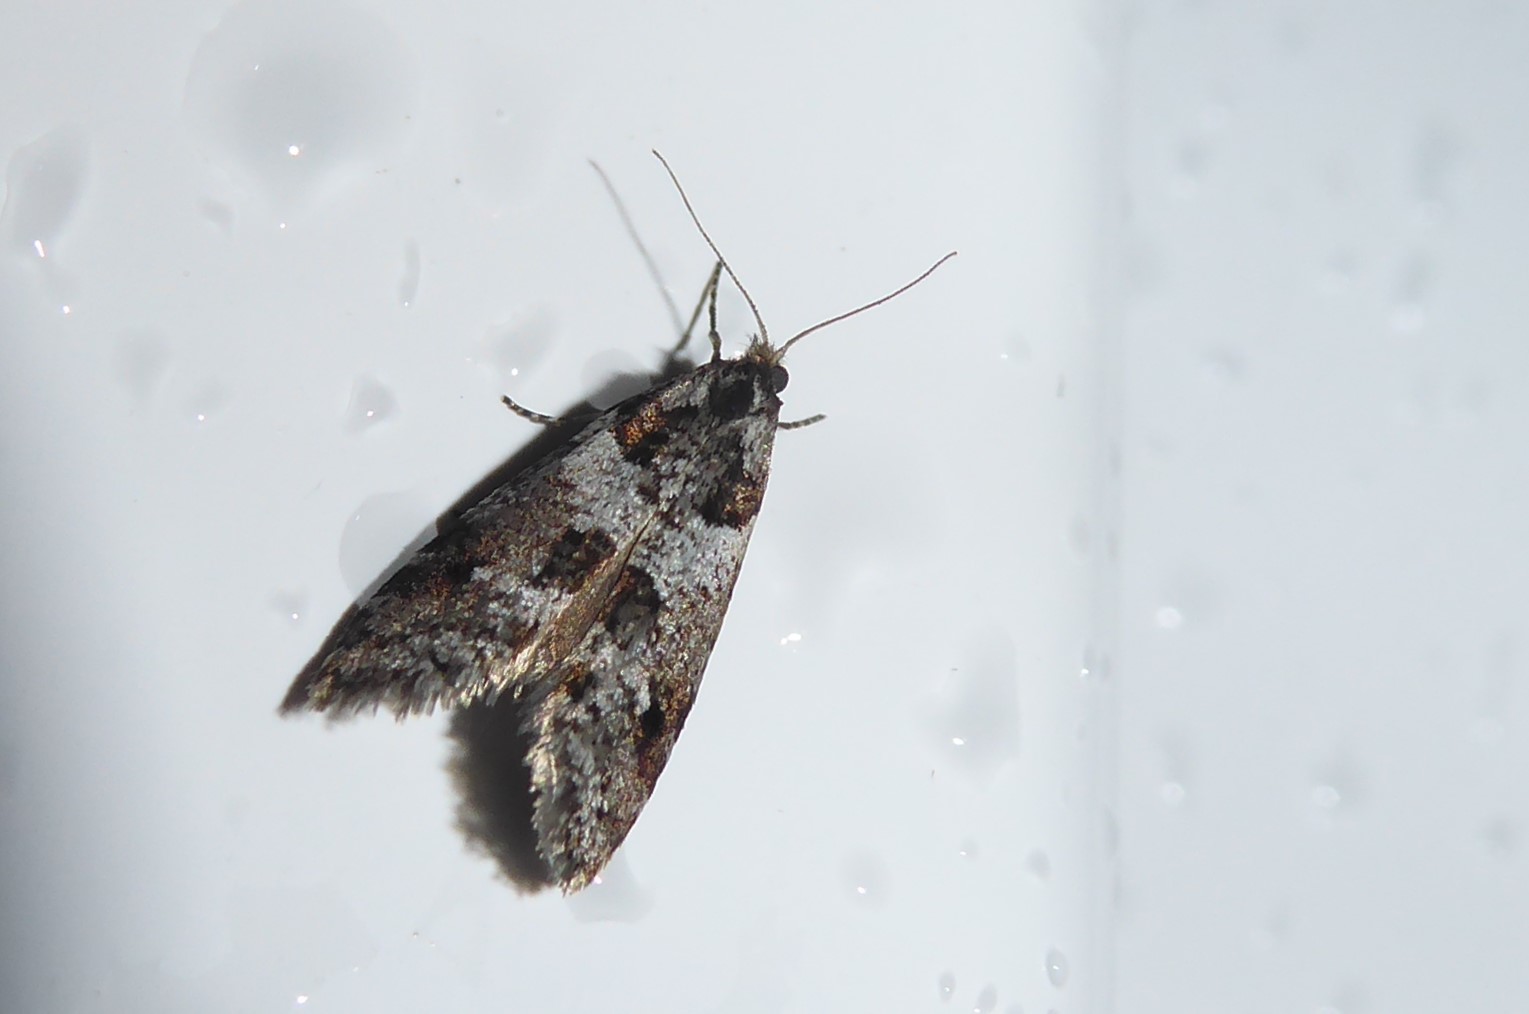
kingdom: Animalia
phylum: Arthropoda
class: Insecta
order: Lepidoptera
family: Psychidae
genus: Lepidoscia
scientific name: Lepidoscia heliochares
